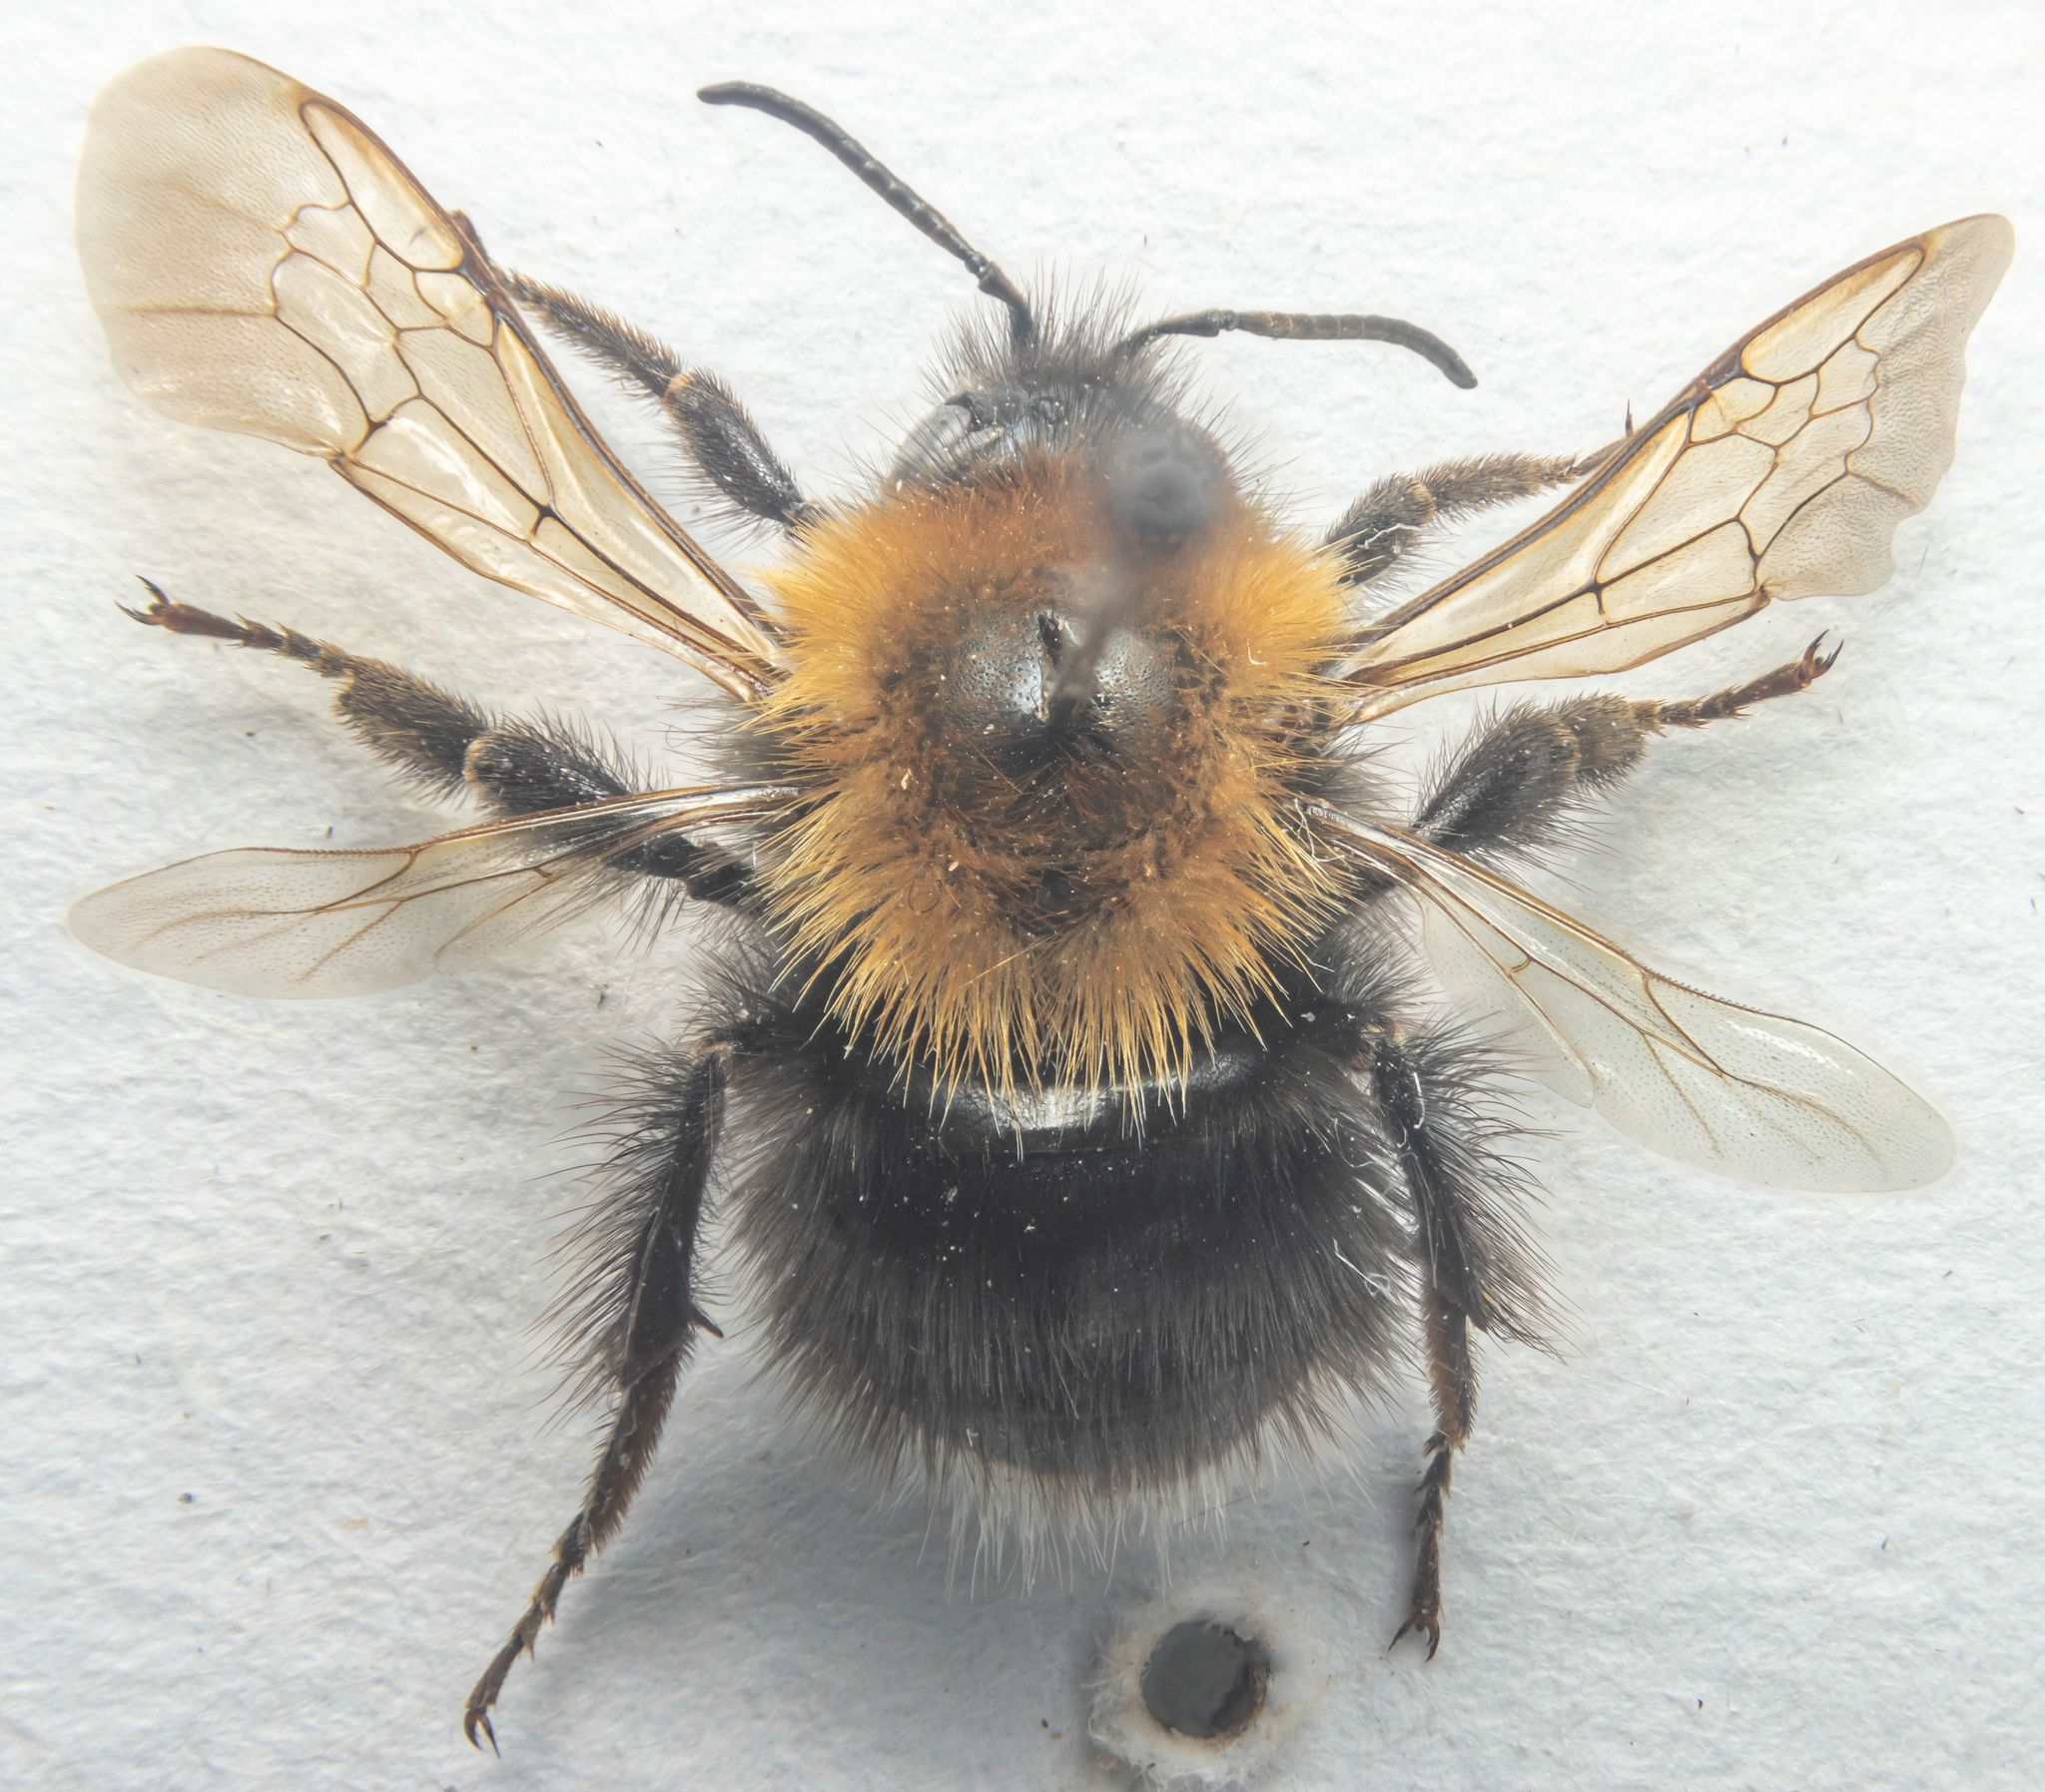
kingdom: Animalia
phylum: Arthropoda
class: Insecta
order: Hymenoptera
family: Apidae
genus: Bombus
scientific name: Bombus hypnorum
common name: New garden bumblebee
